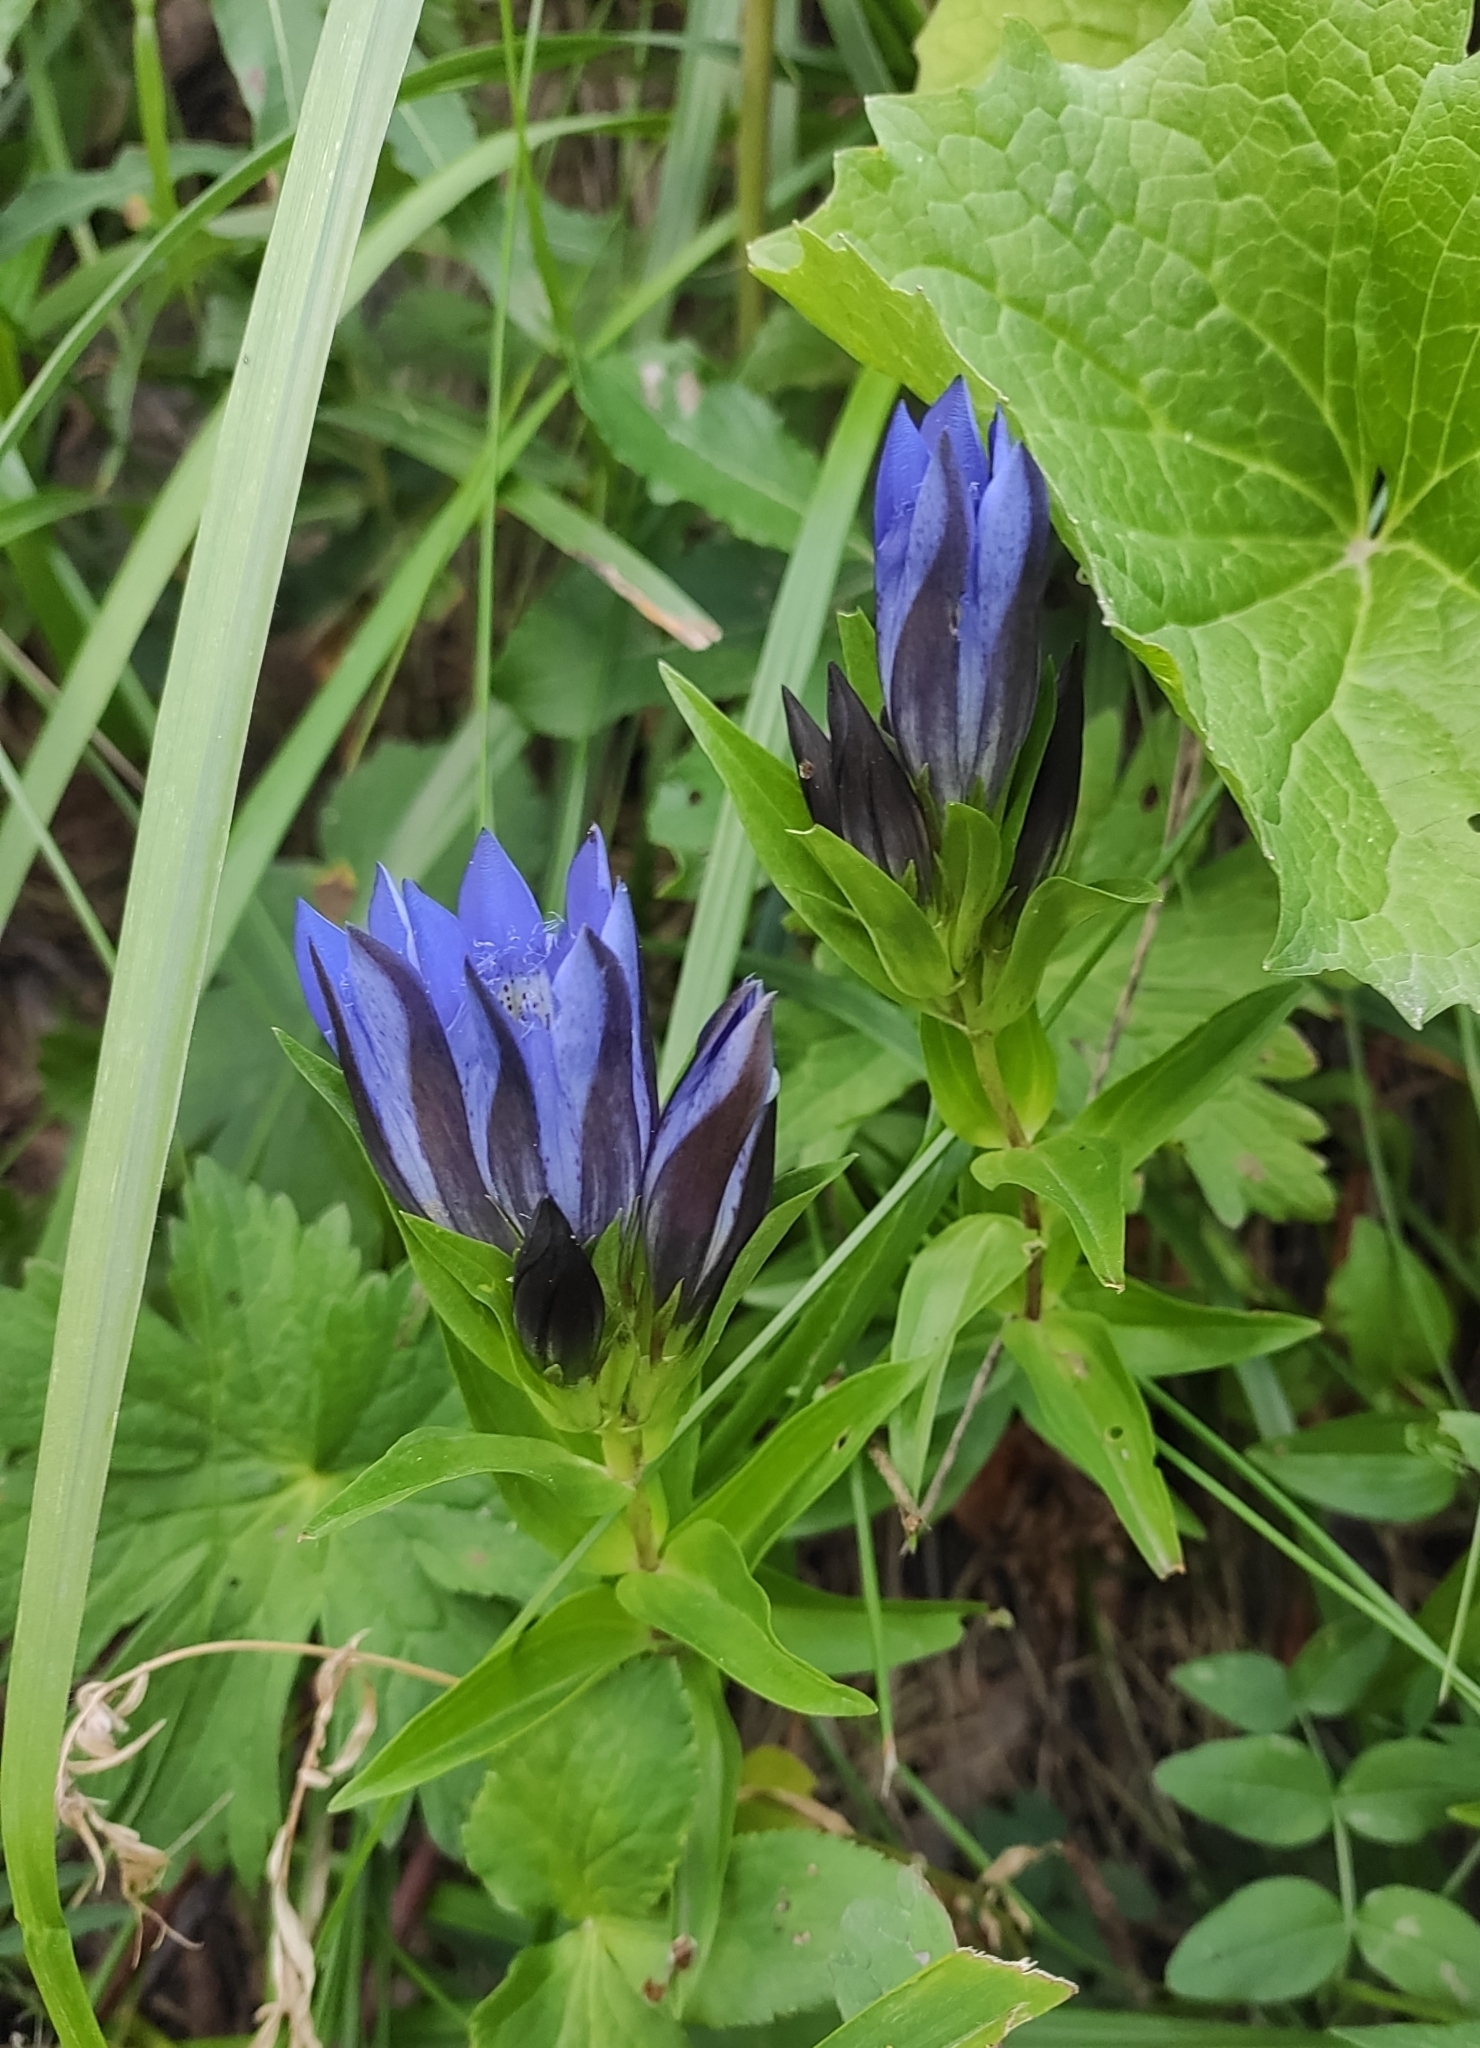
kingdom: Plantae
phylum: Tracheophyta
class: Magnoliopsida
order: Gentianales
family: Gentianaceae
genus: Gentiana
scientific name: Gentiana septemfida
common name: Crested gentian
